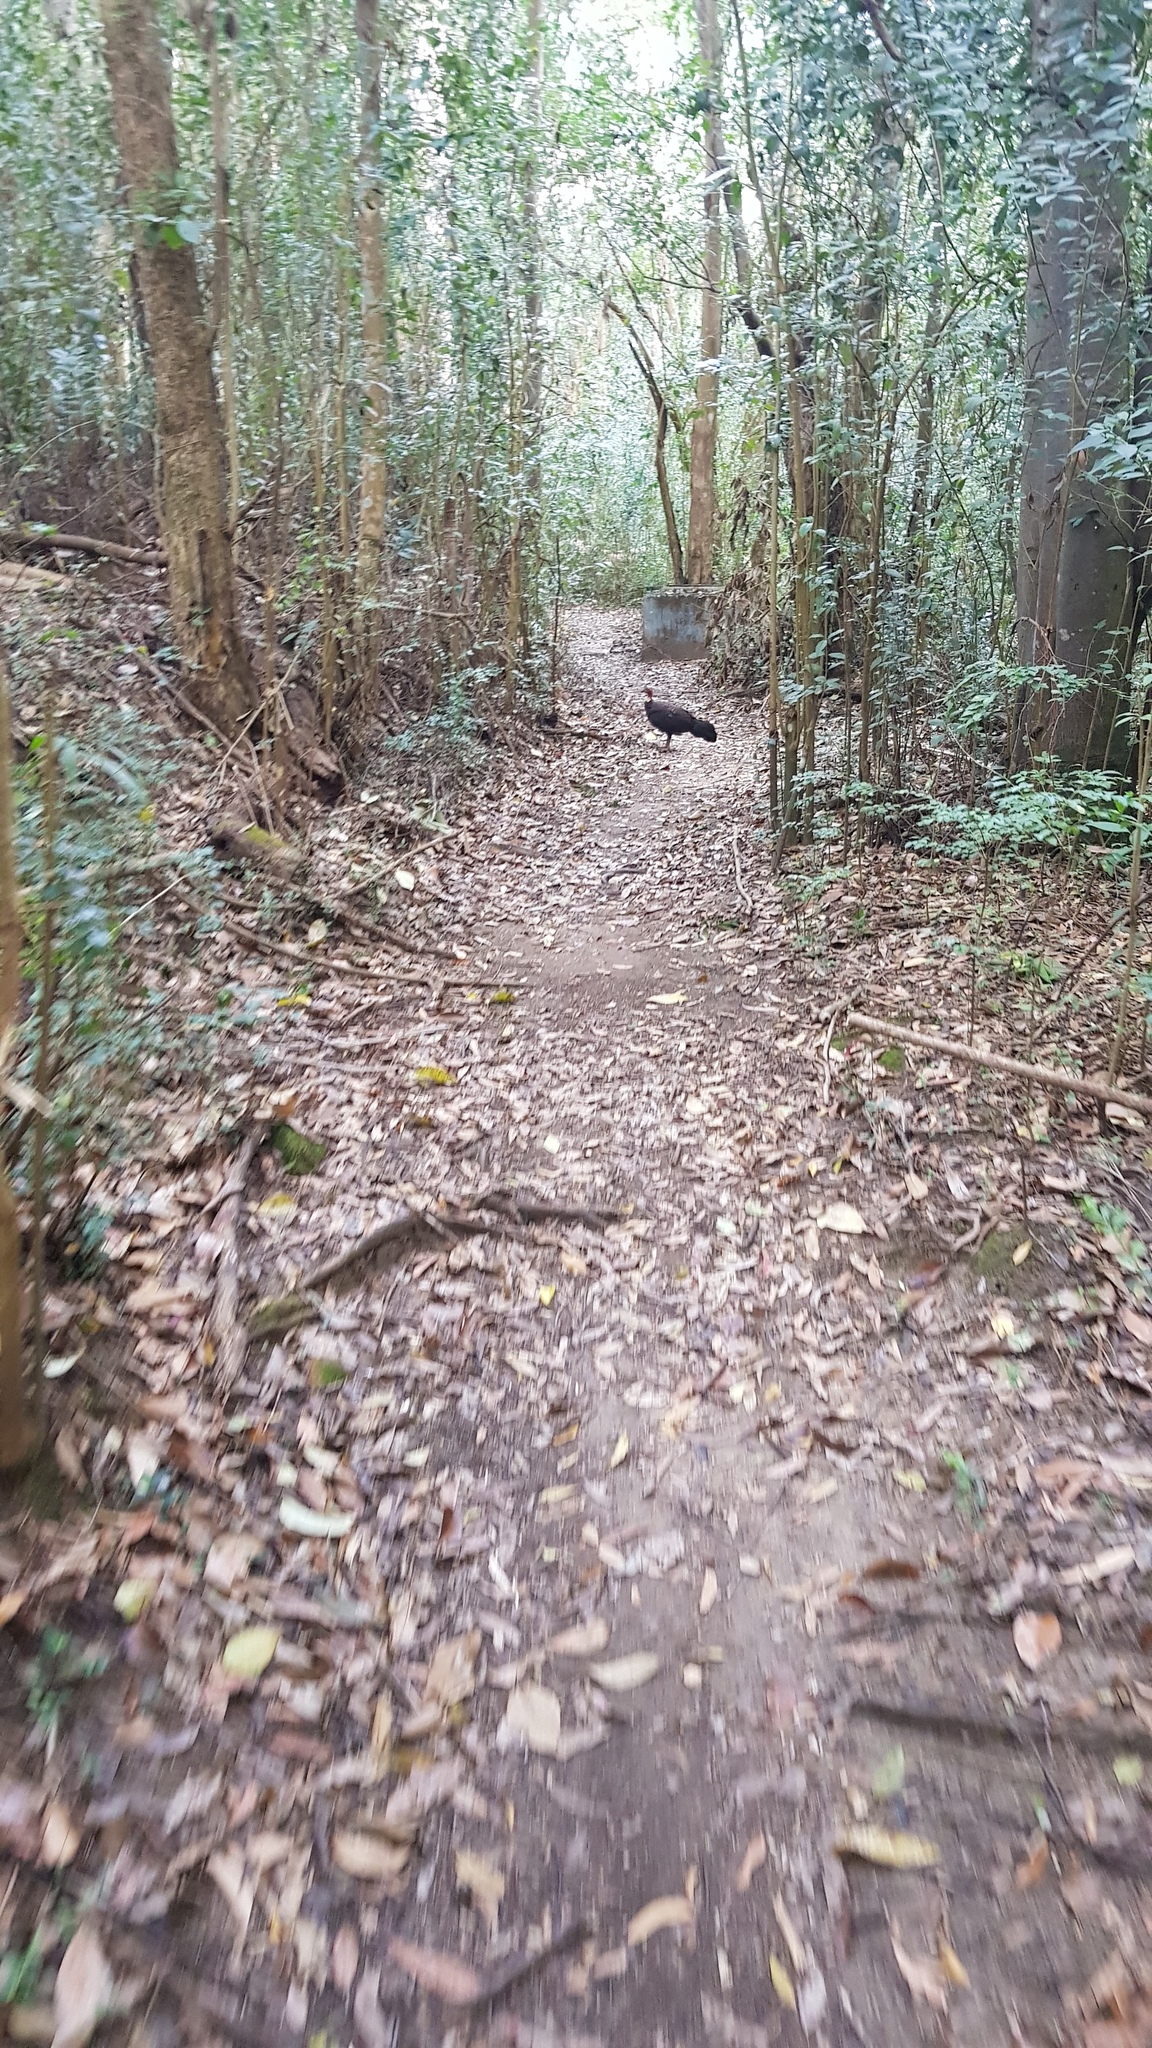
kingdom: Animalia
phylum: Chordata
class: Aves
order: Galliformes
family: Megapodiidae
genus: Alectura
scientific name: Alectura lathami
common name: Australian brushturkey
